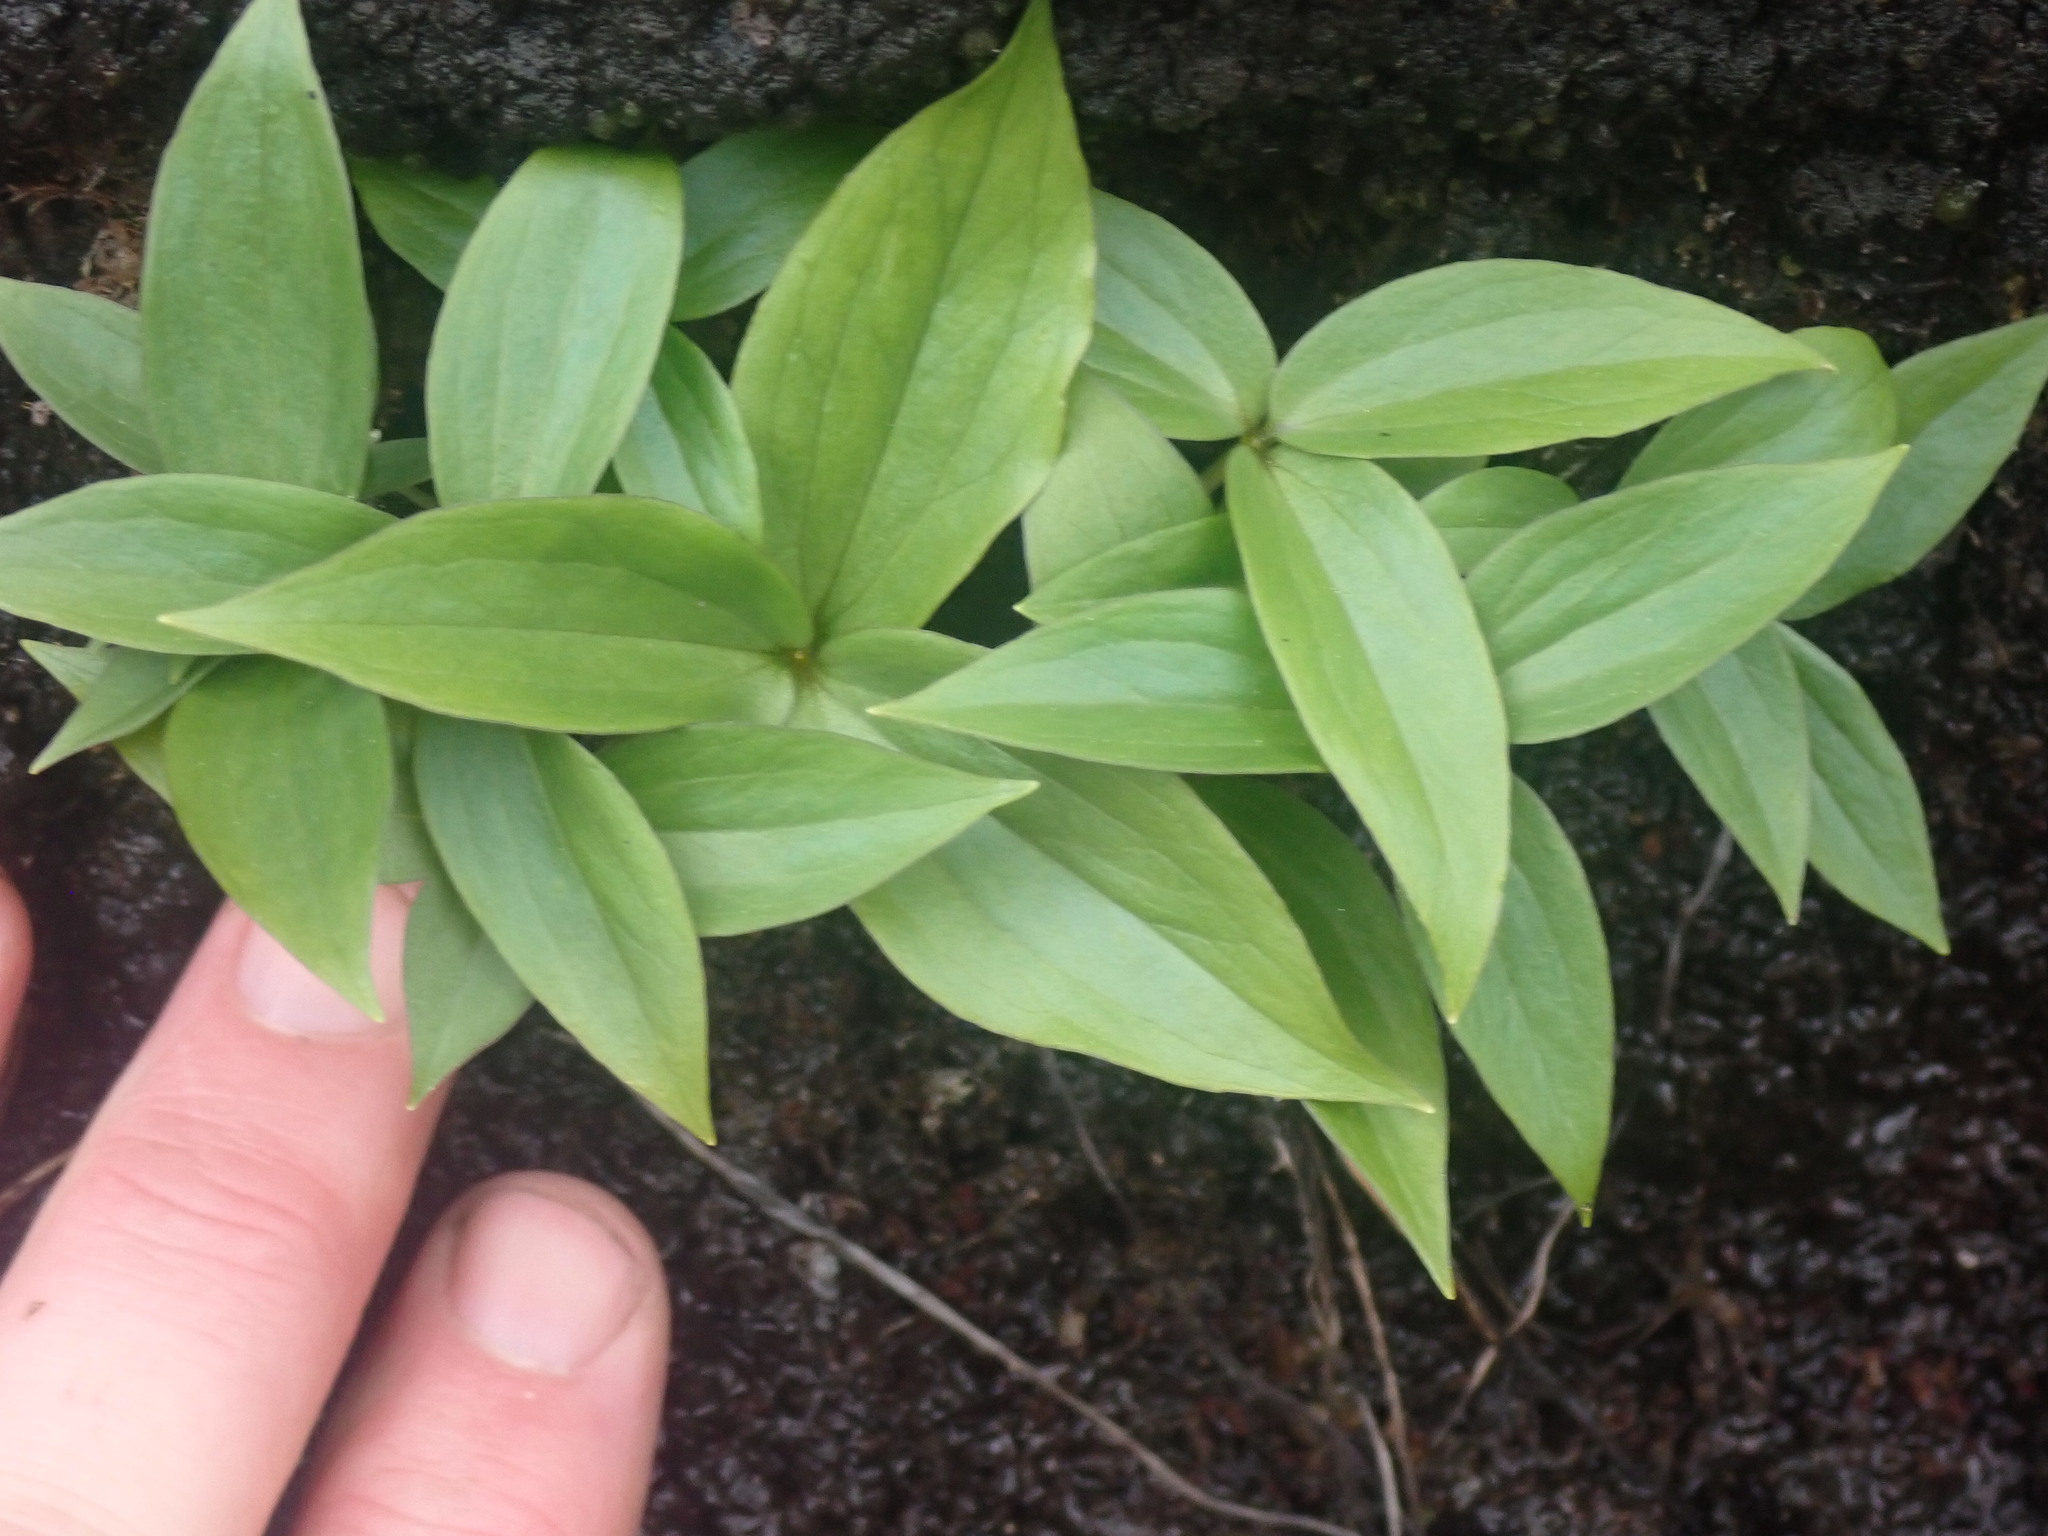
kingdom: Plantae
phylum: Tracheophyta
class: Liliopsida
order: Liliales
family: Melanthiaceae
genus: Trillium
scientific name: Trillium hibbersonii
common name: Hibberson's trillium
